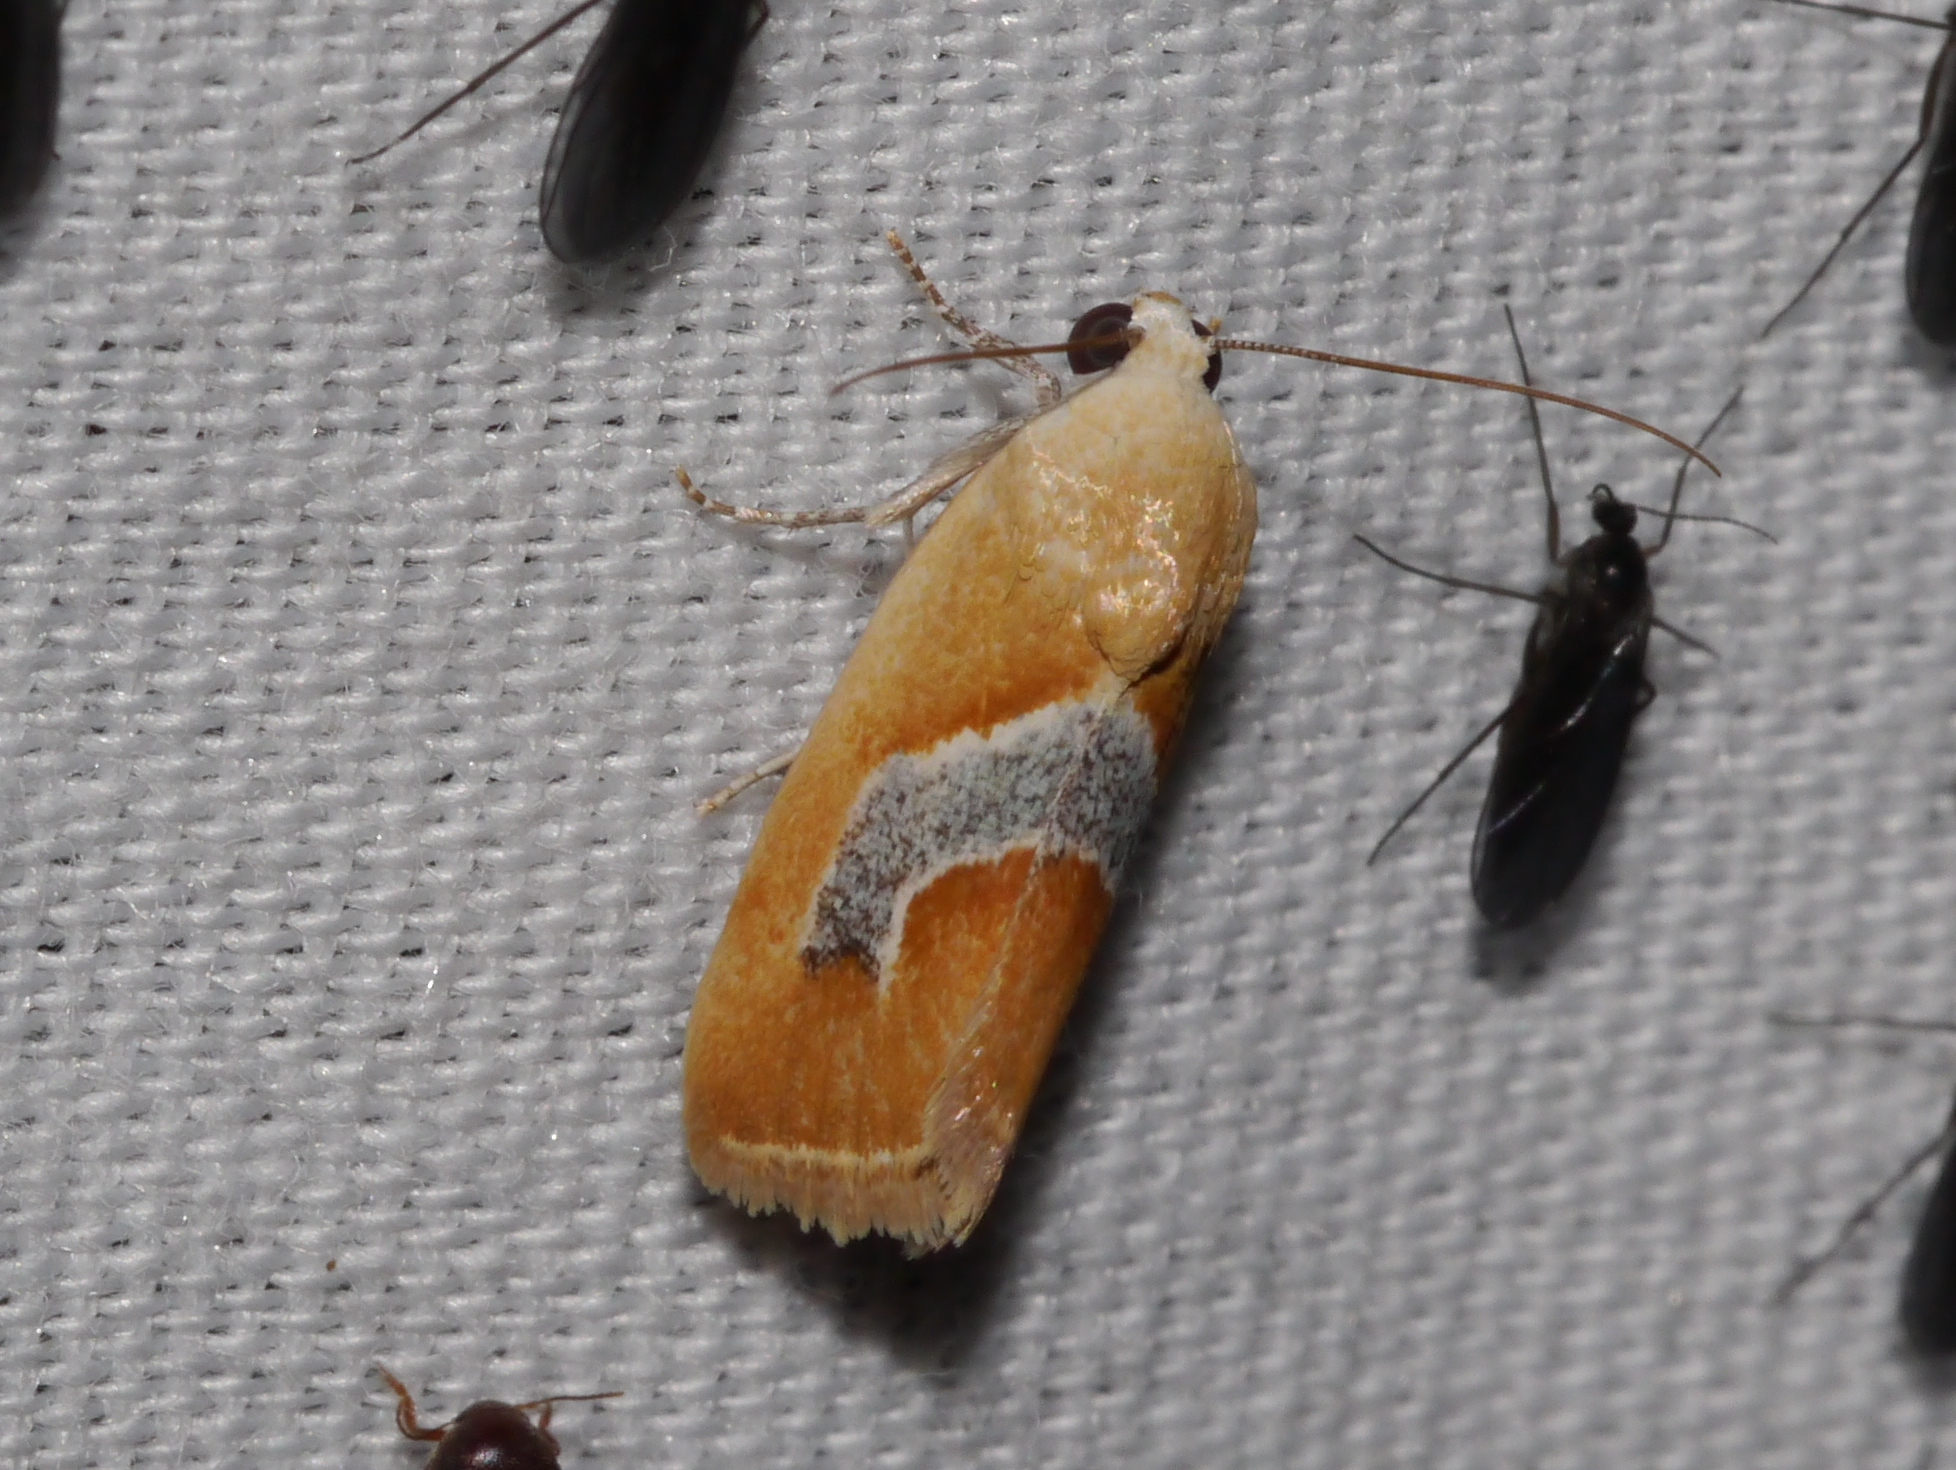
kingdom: Animalia
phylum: Arthropoda
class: Insecta
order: Lepidoptera
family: Noctuidae
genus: Ponometia
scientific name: Ponometia venustula
